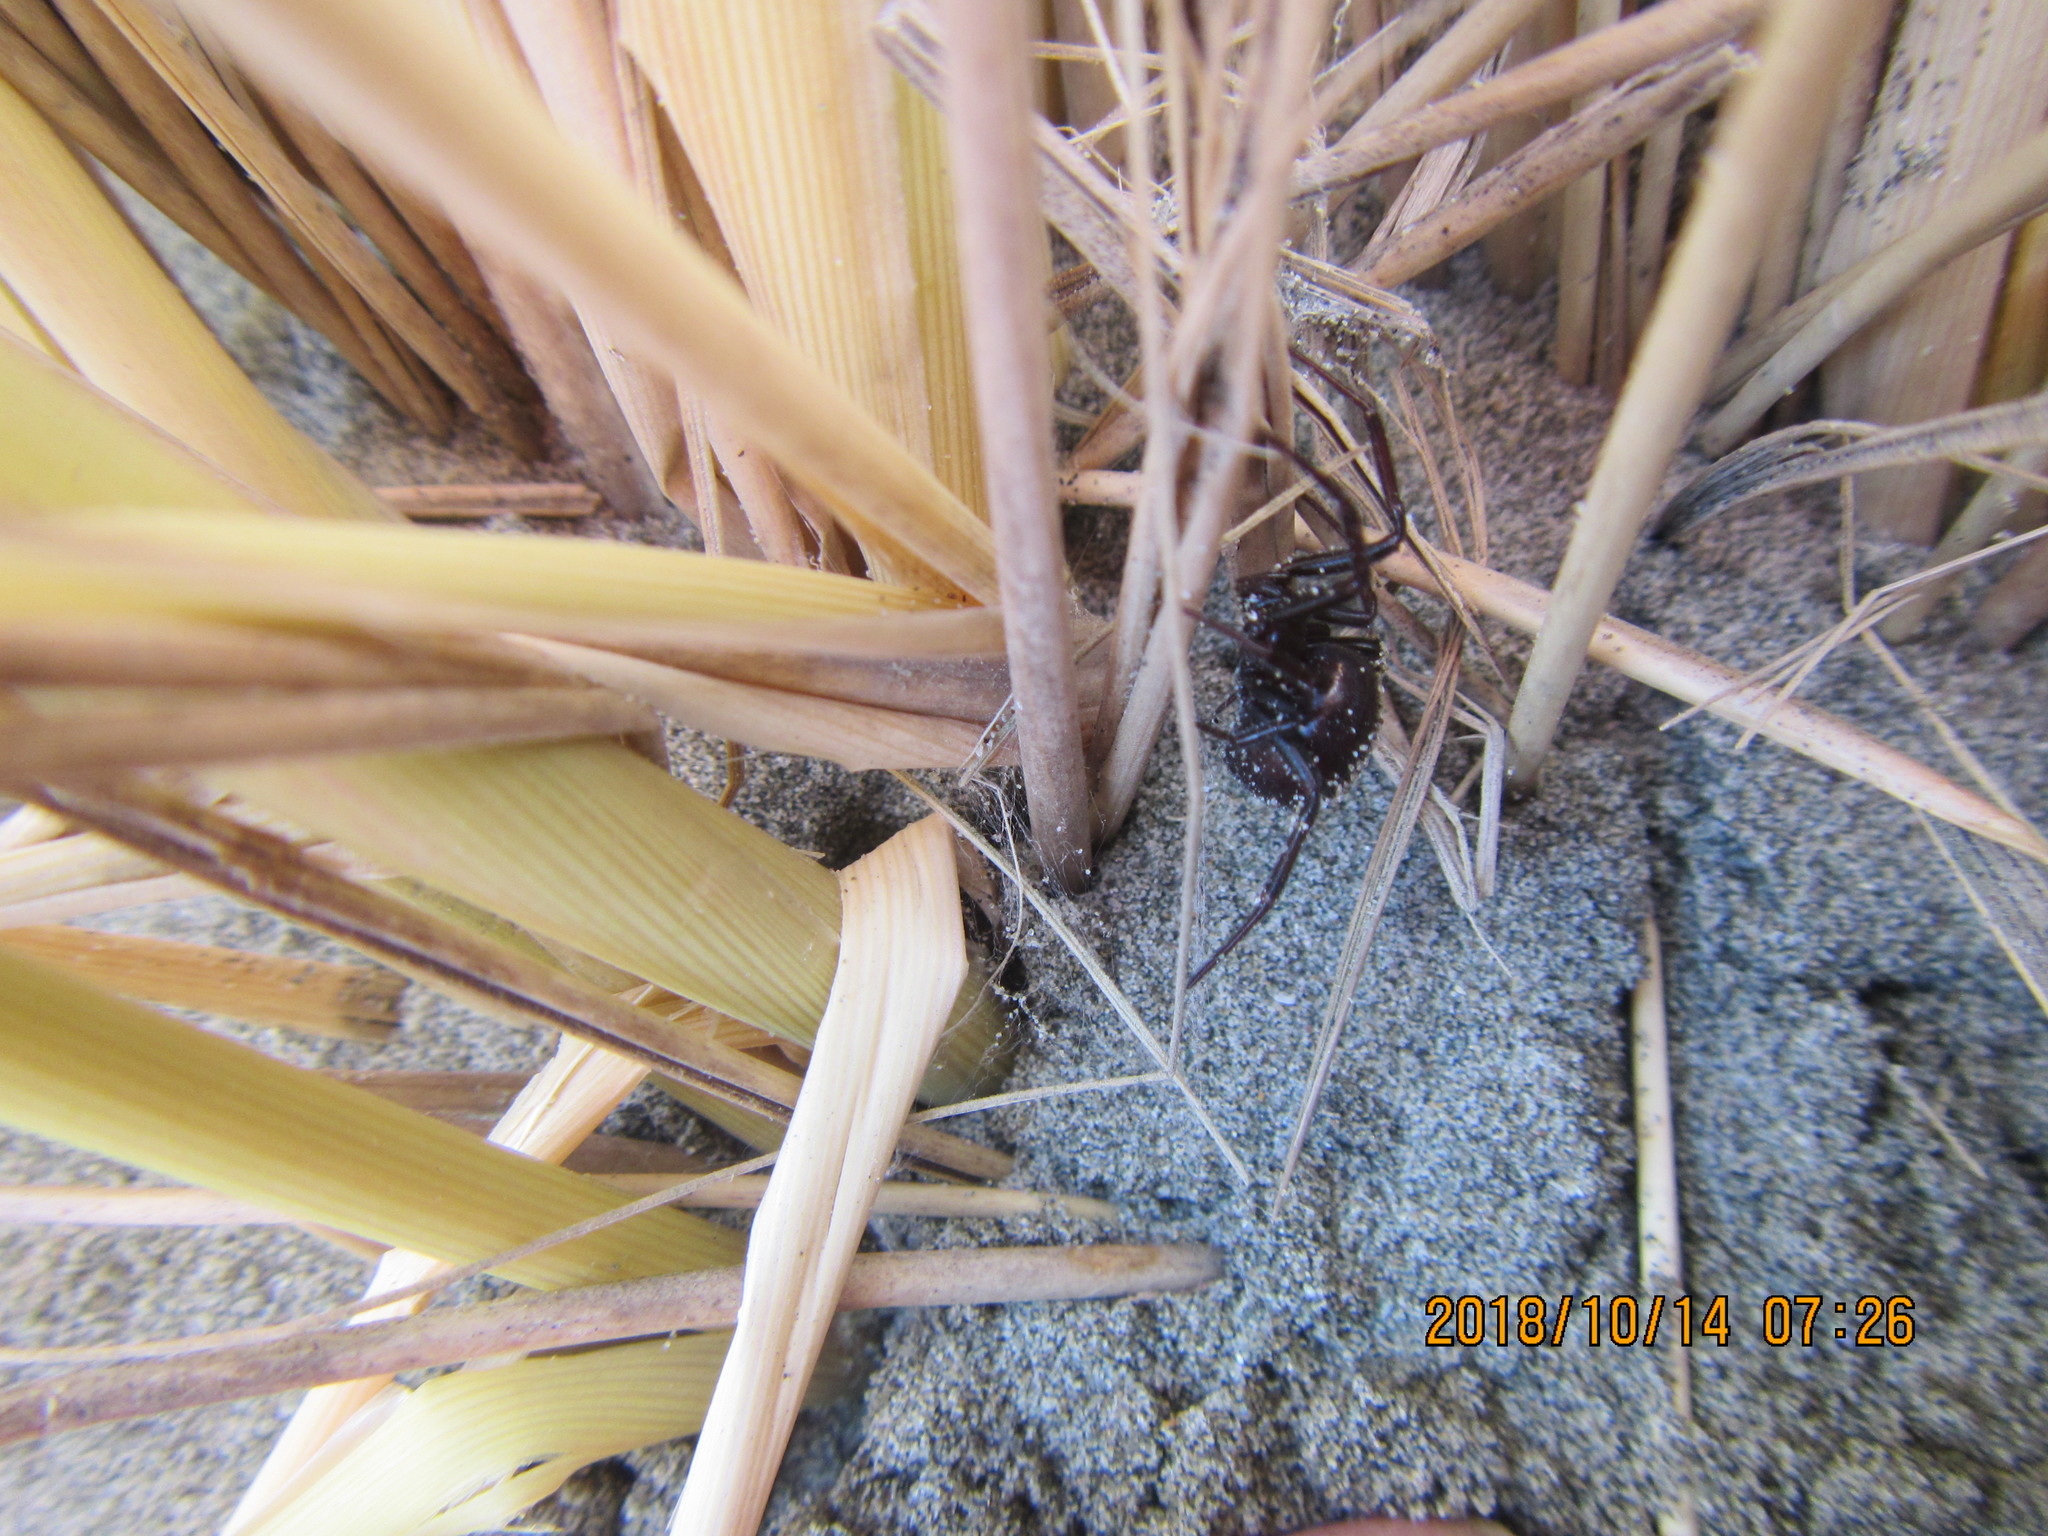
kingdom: Animalia
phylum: Arthropoda
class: Arachnida
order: Araneae
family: Theridiidae
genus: Steatoda
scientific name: Steatoda capensis
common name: Cobweb weaver
